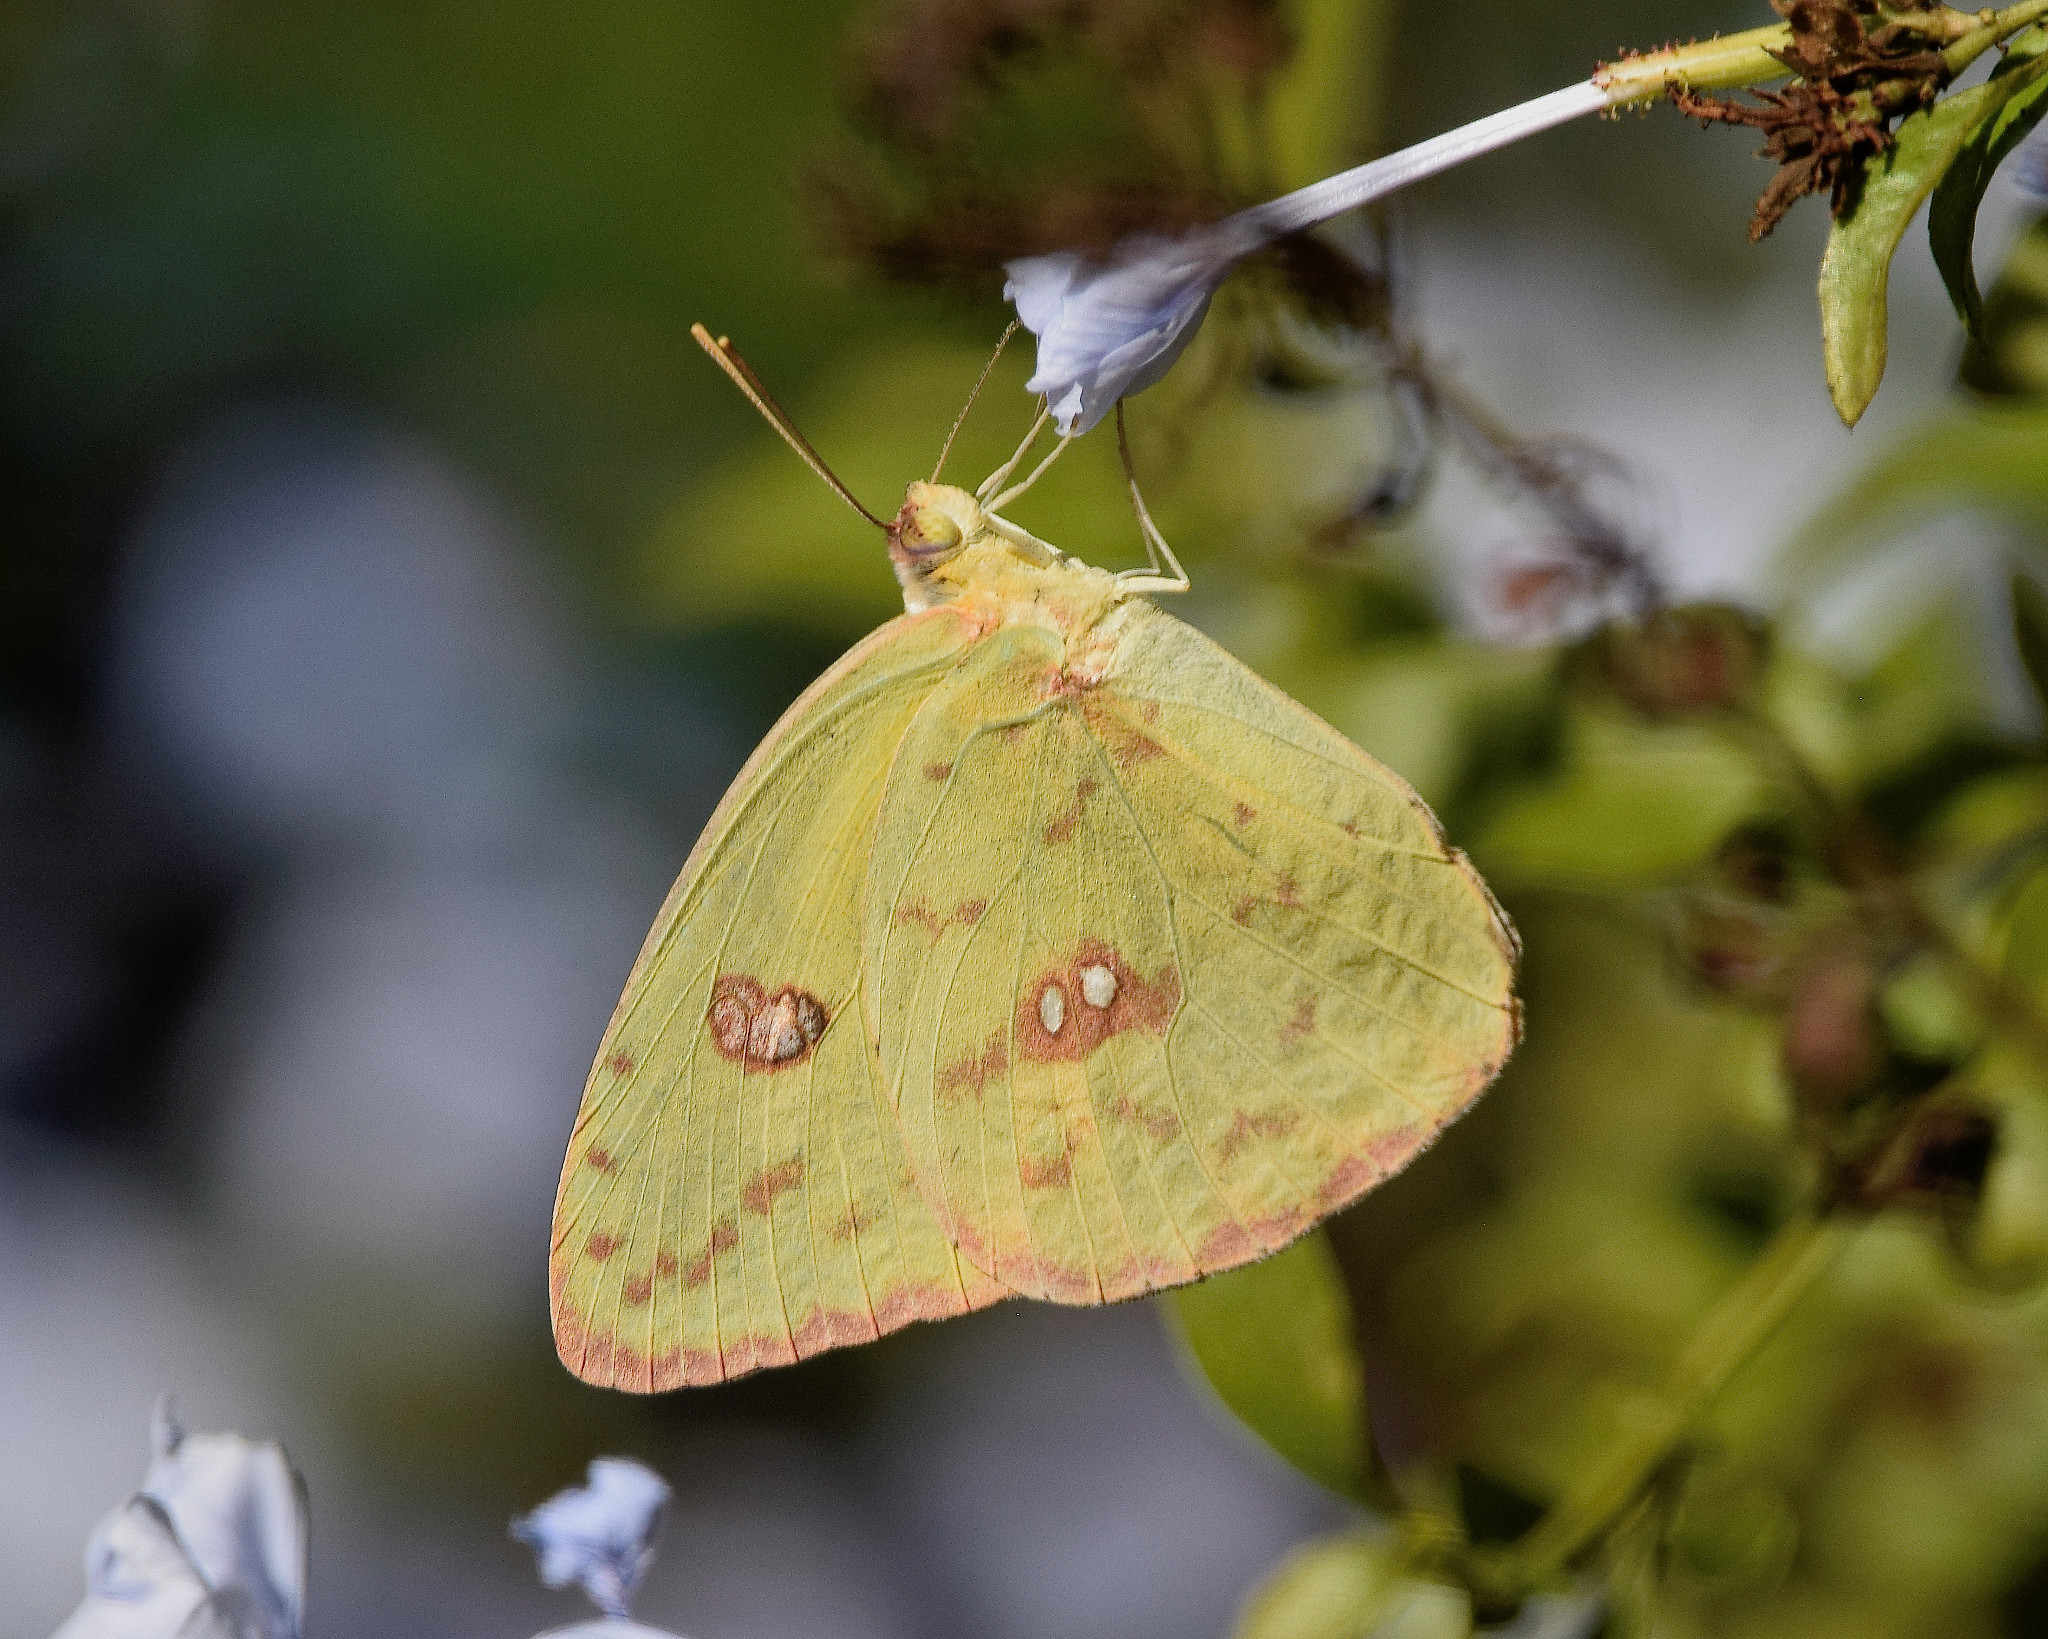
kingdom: Animalia
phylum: Arthropoda
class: Insecta
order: Lepidoptera
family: Pieridae
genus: Phoebis
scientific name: Phoebis sennae
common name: Cloudless sulphur
